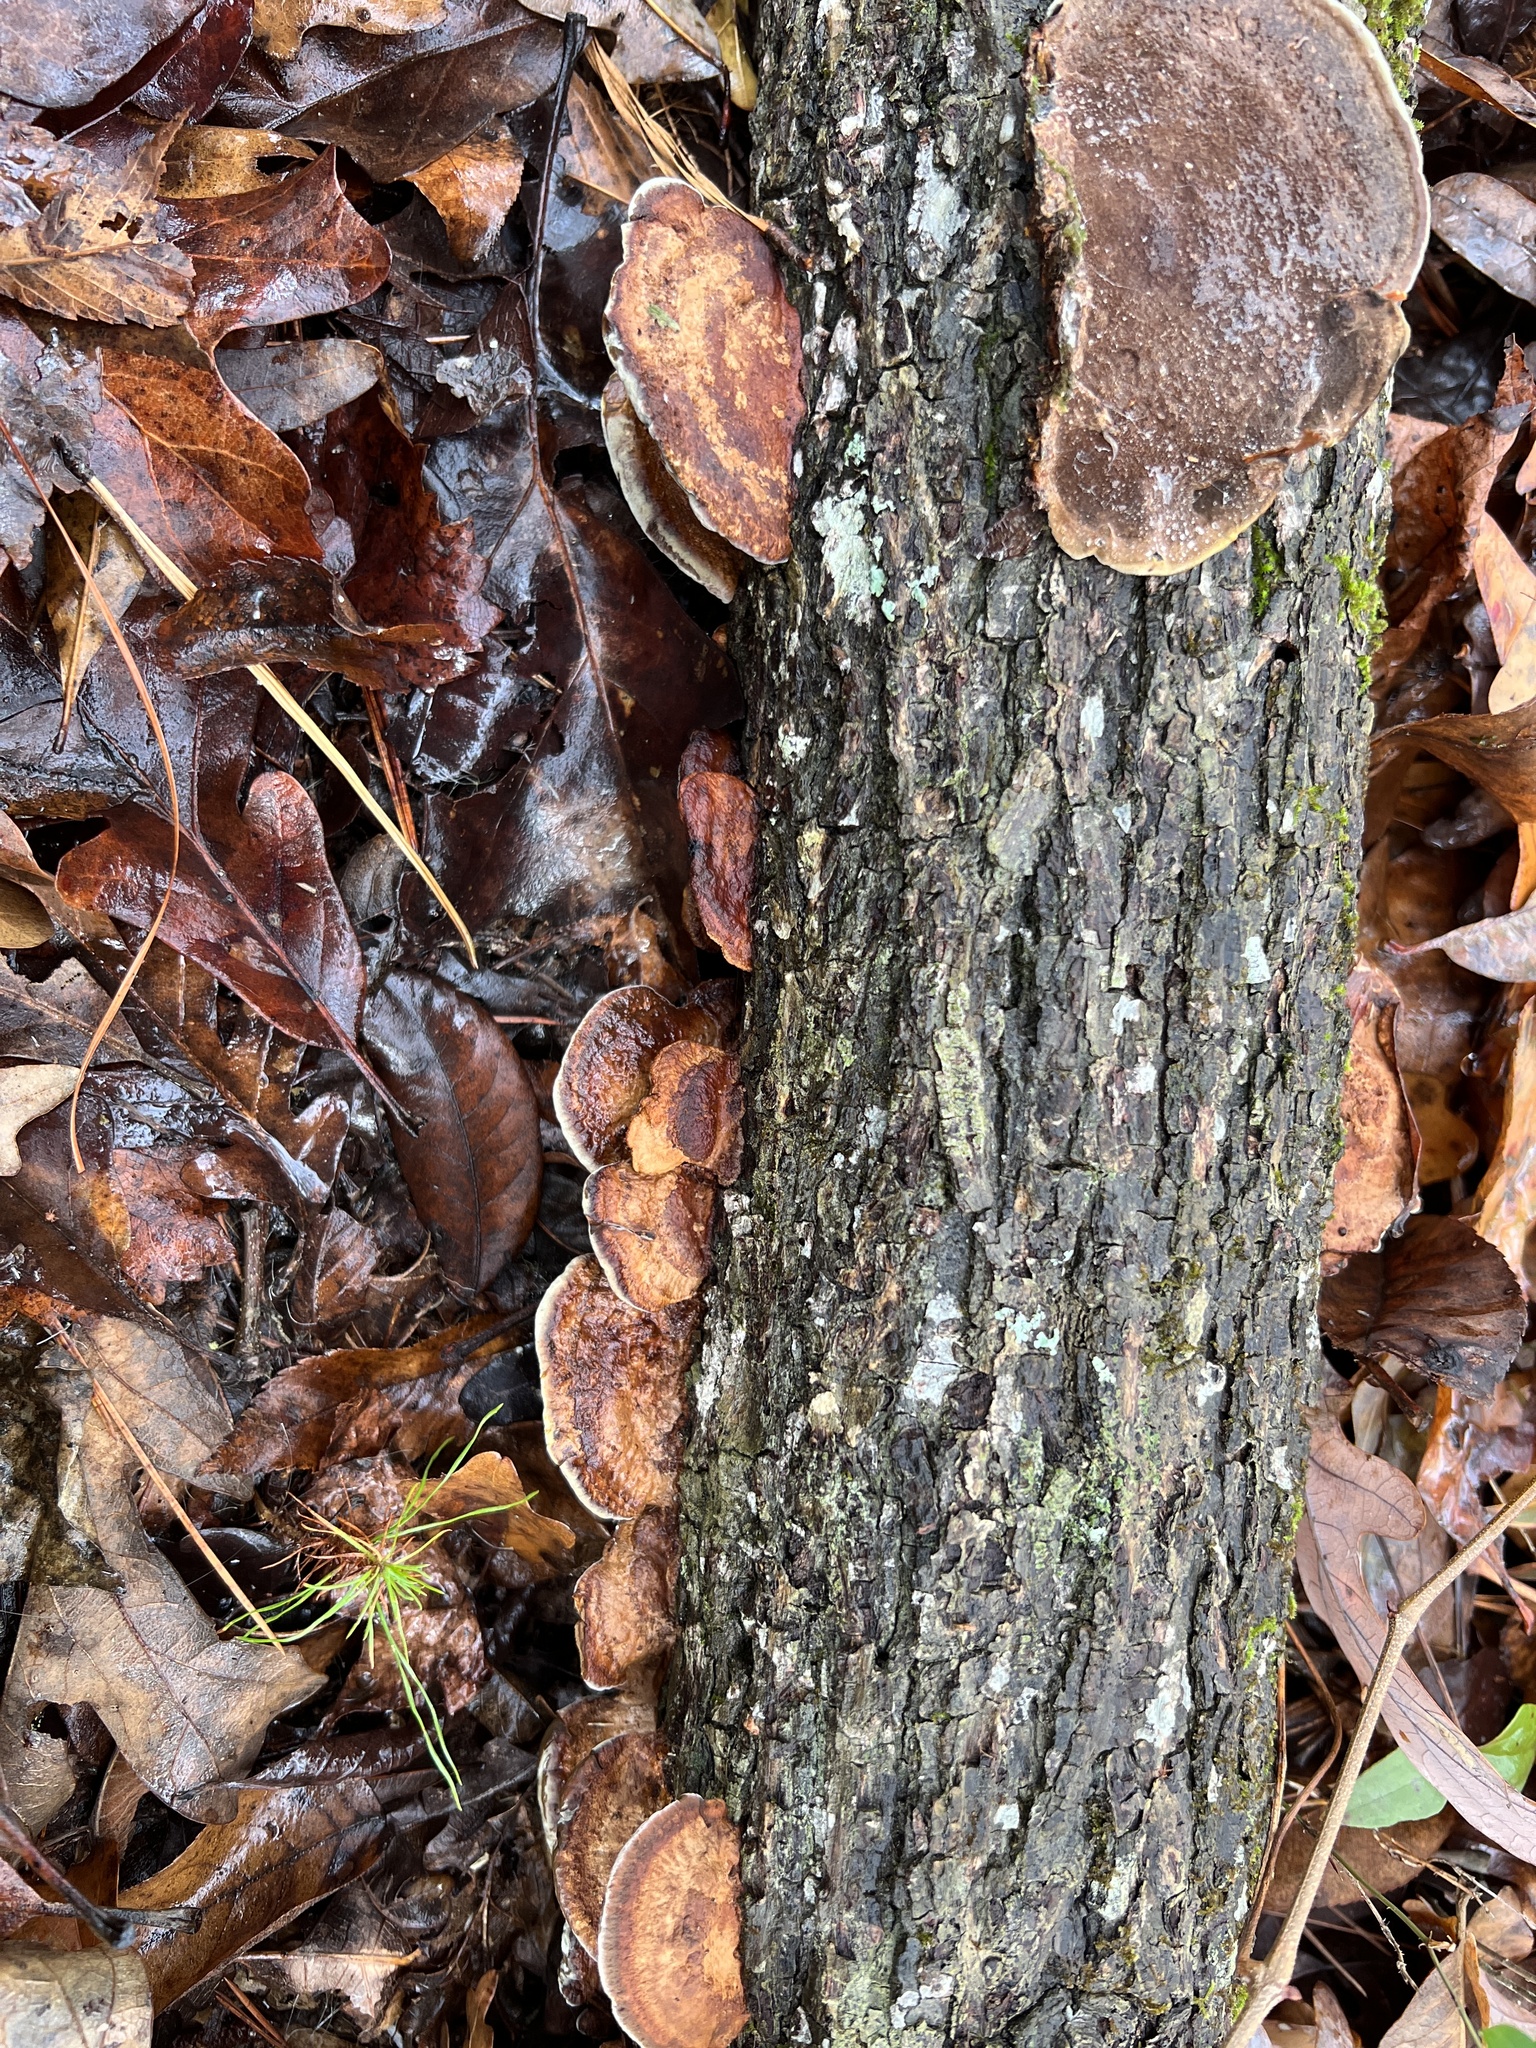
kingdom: Fungi
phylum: Basidiomycota
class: Agaricomycetes
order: Hymenochaetales
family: Hymenochaetaceae
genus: Phellinus
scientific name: Phellinus gilvus
